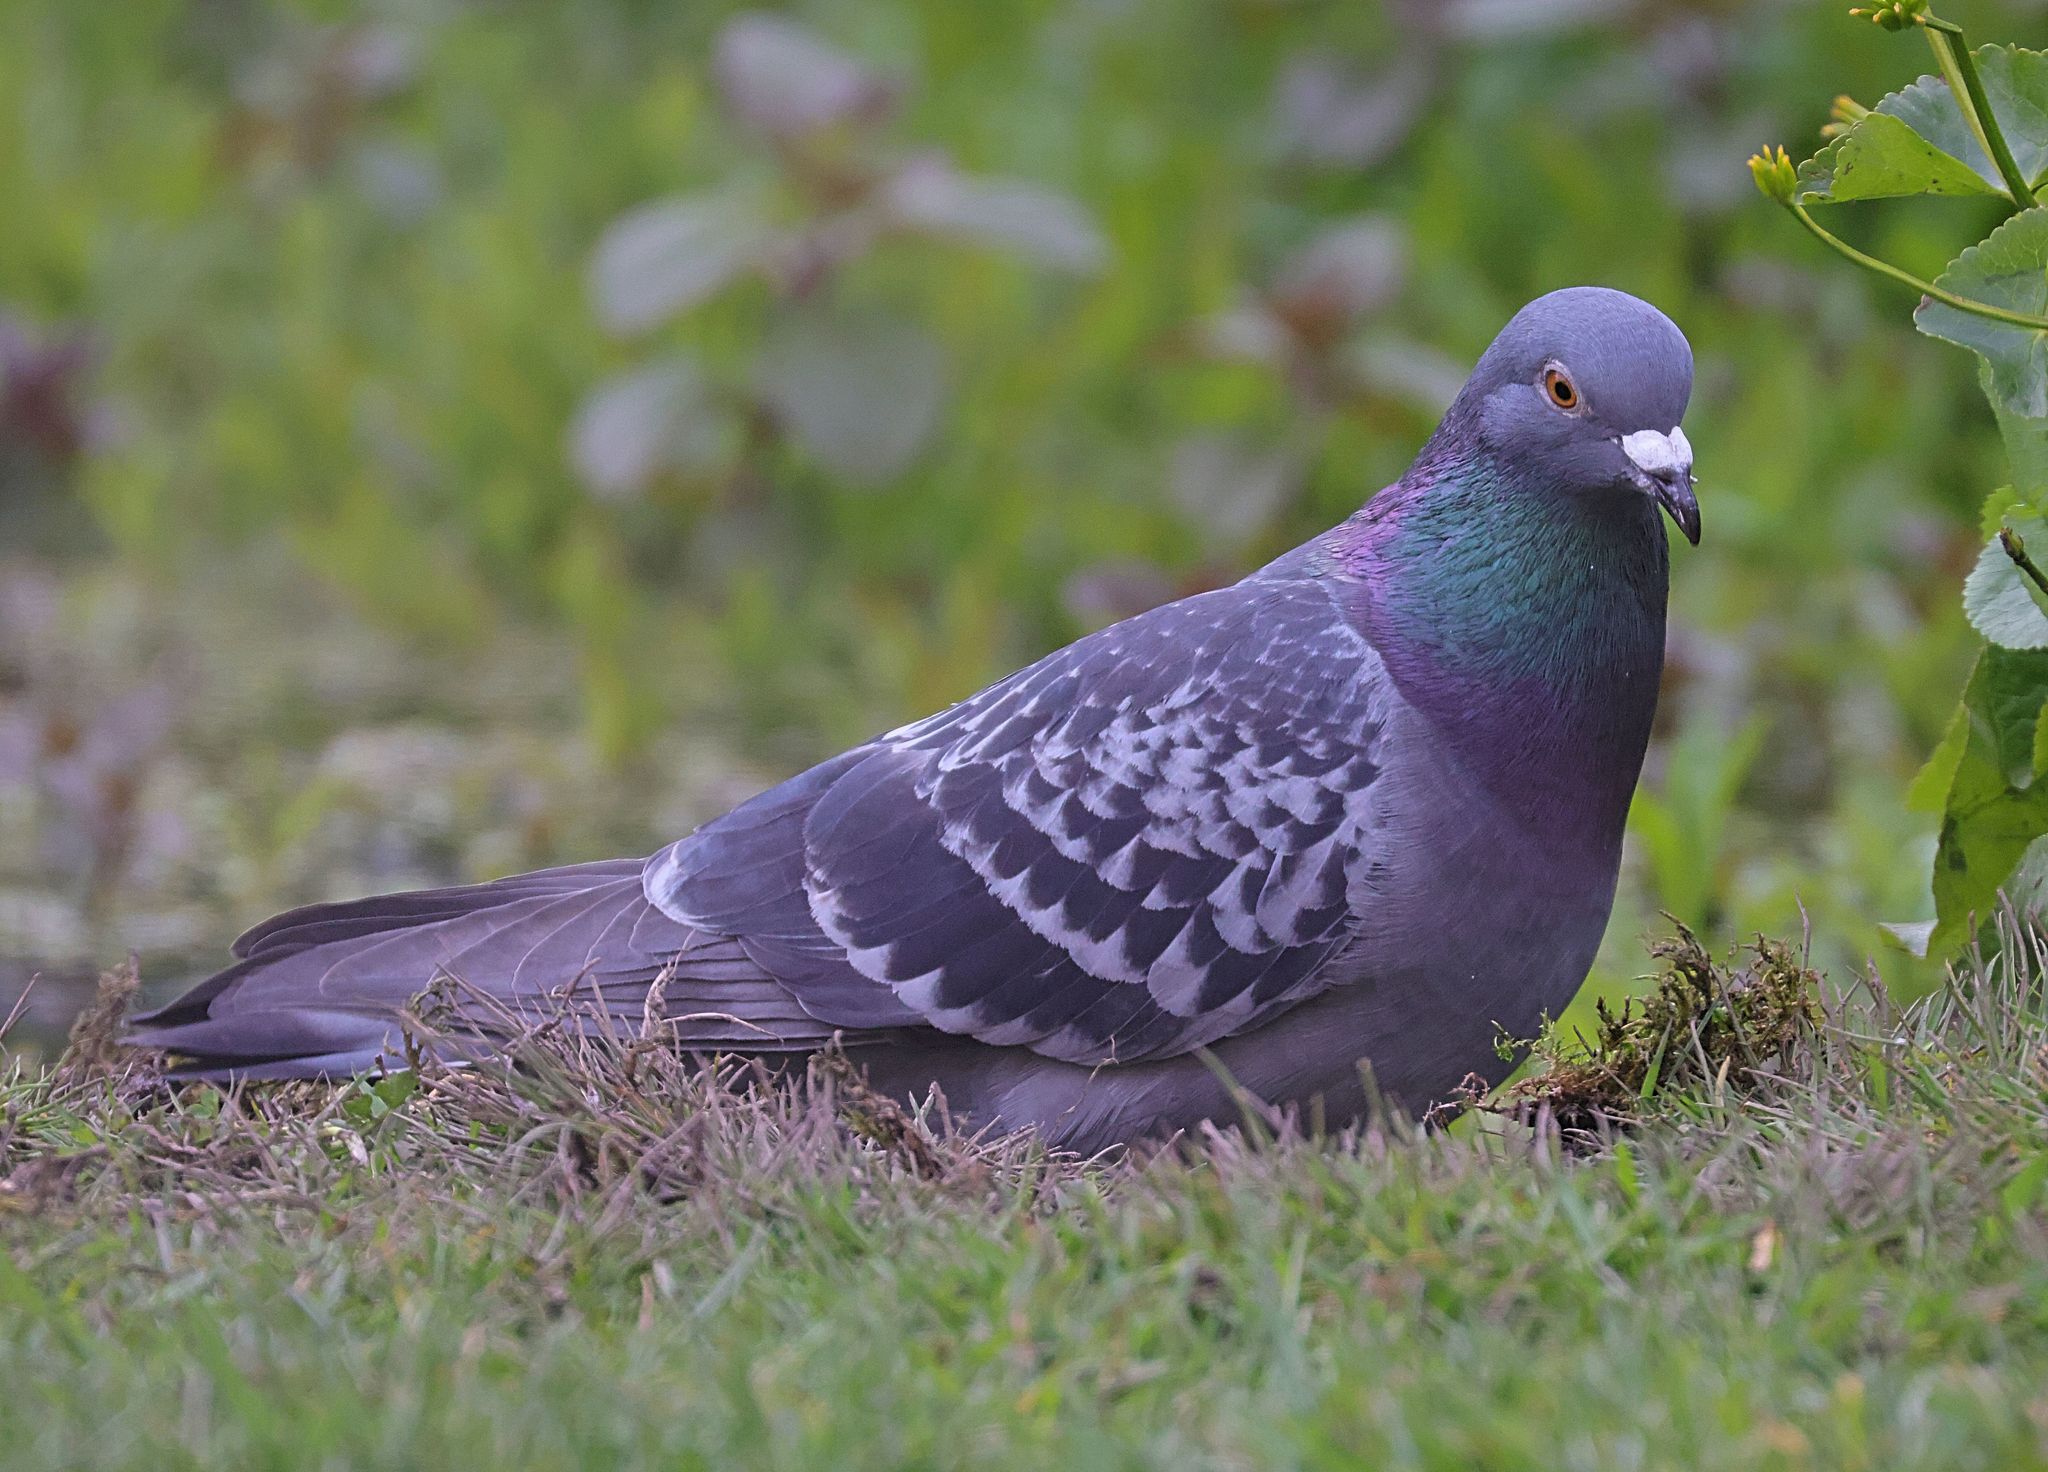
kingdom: Animalia
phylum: Chordata
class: Aves
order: Columbiformes
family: Columbidae
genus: Columba
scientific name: Columba livia
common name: Rock pigeon
